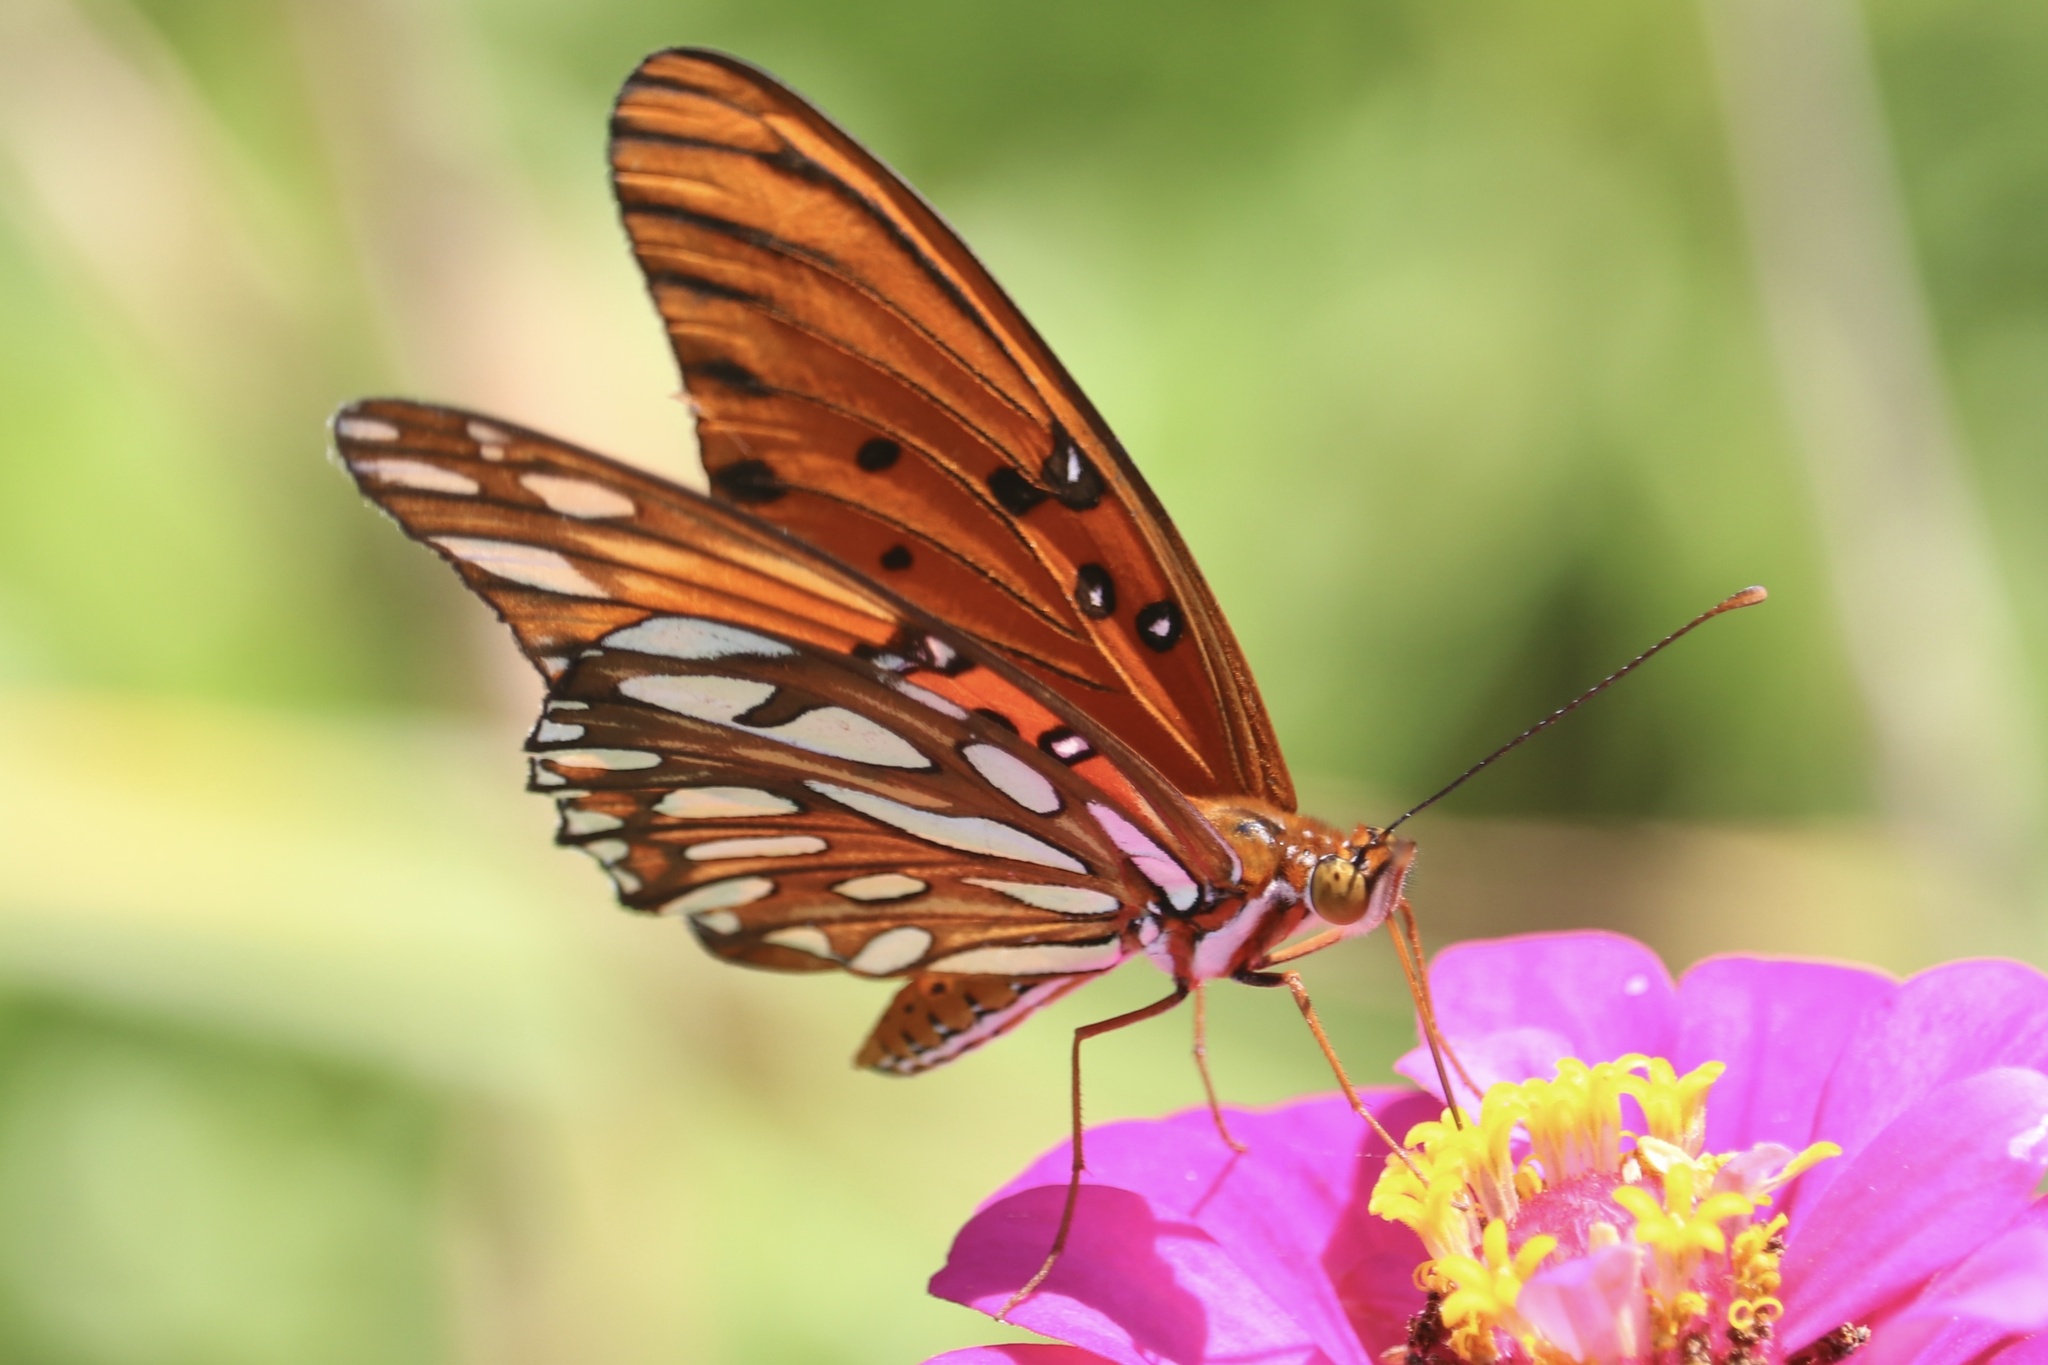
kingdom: Animalia
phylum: Arthropoda
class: Insecta
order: Lepidoptera
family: Nymphalidae
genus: Dione
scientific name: Dione vanillae
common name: Gulf fritillary
